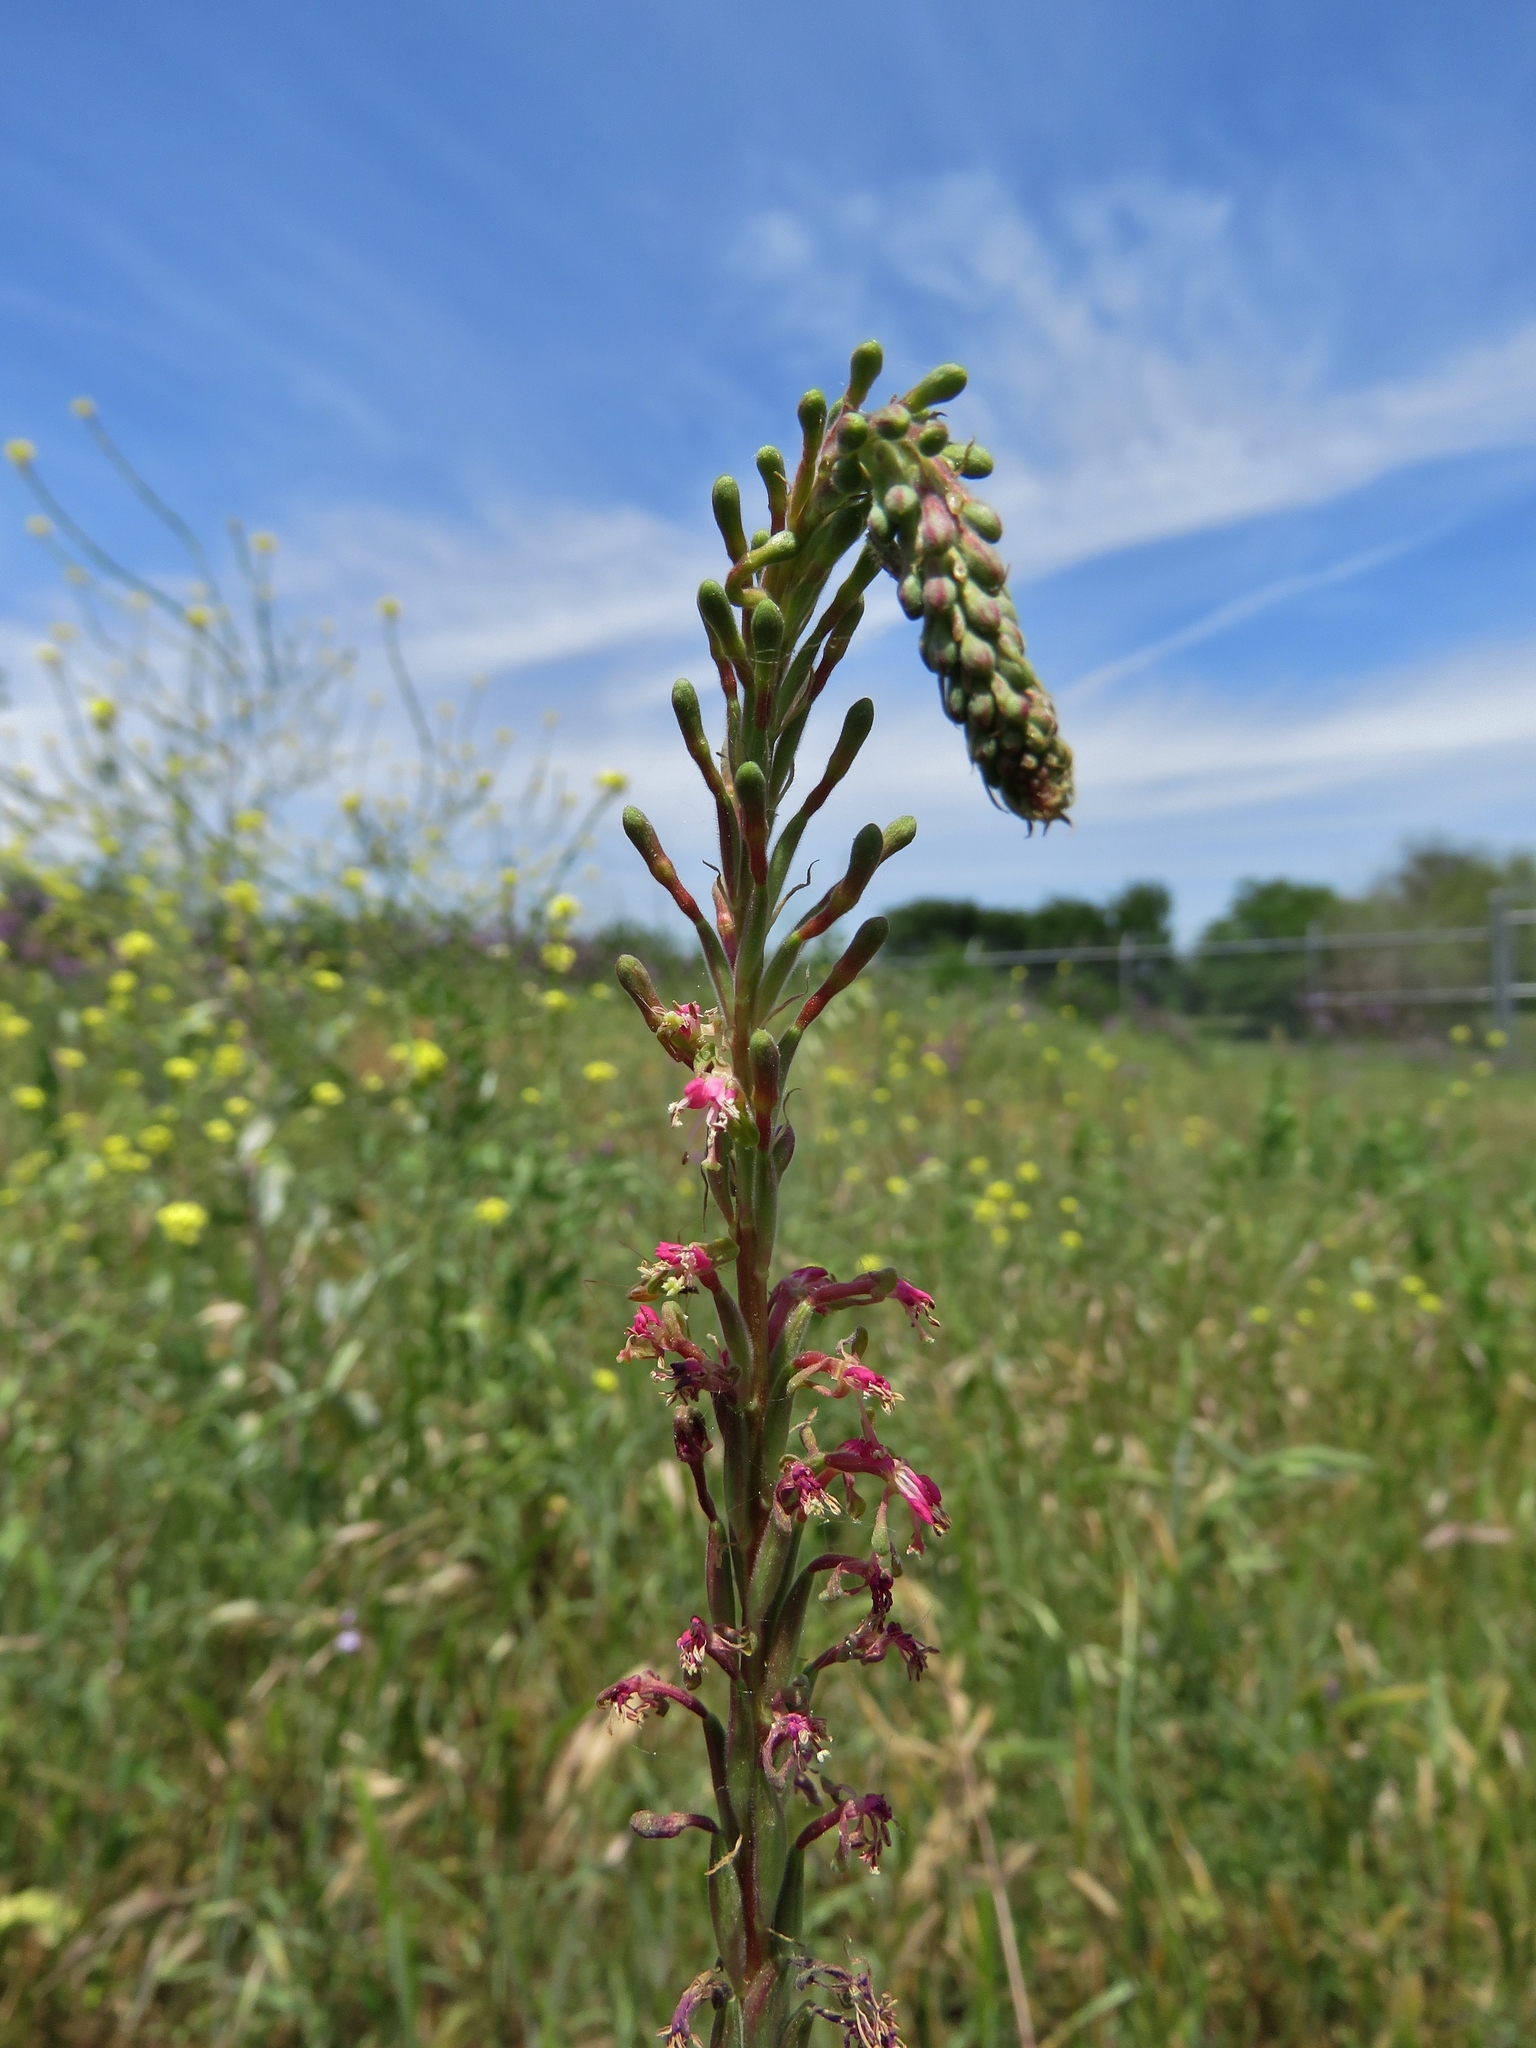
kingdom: Plantae
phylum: Tracheophyta
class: Magnoliopsida
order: Myrtales
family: Onagraceae
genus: Oenothera
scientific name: Oenothera suffulta
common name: Kisses
